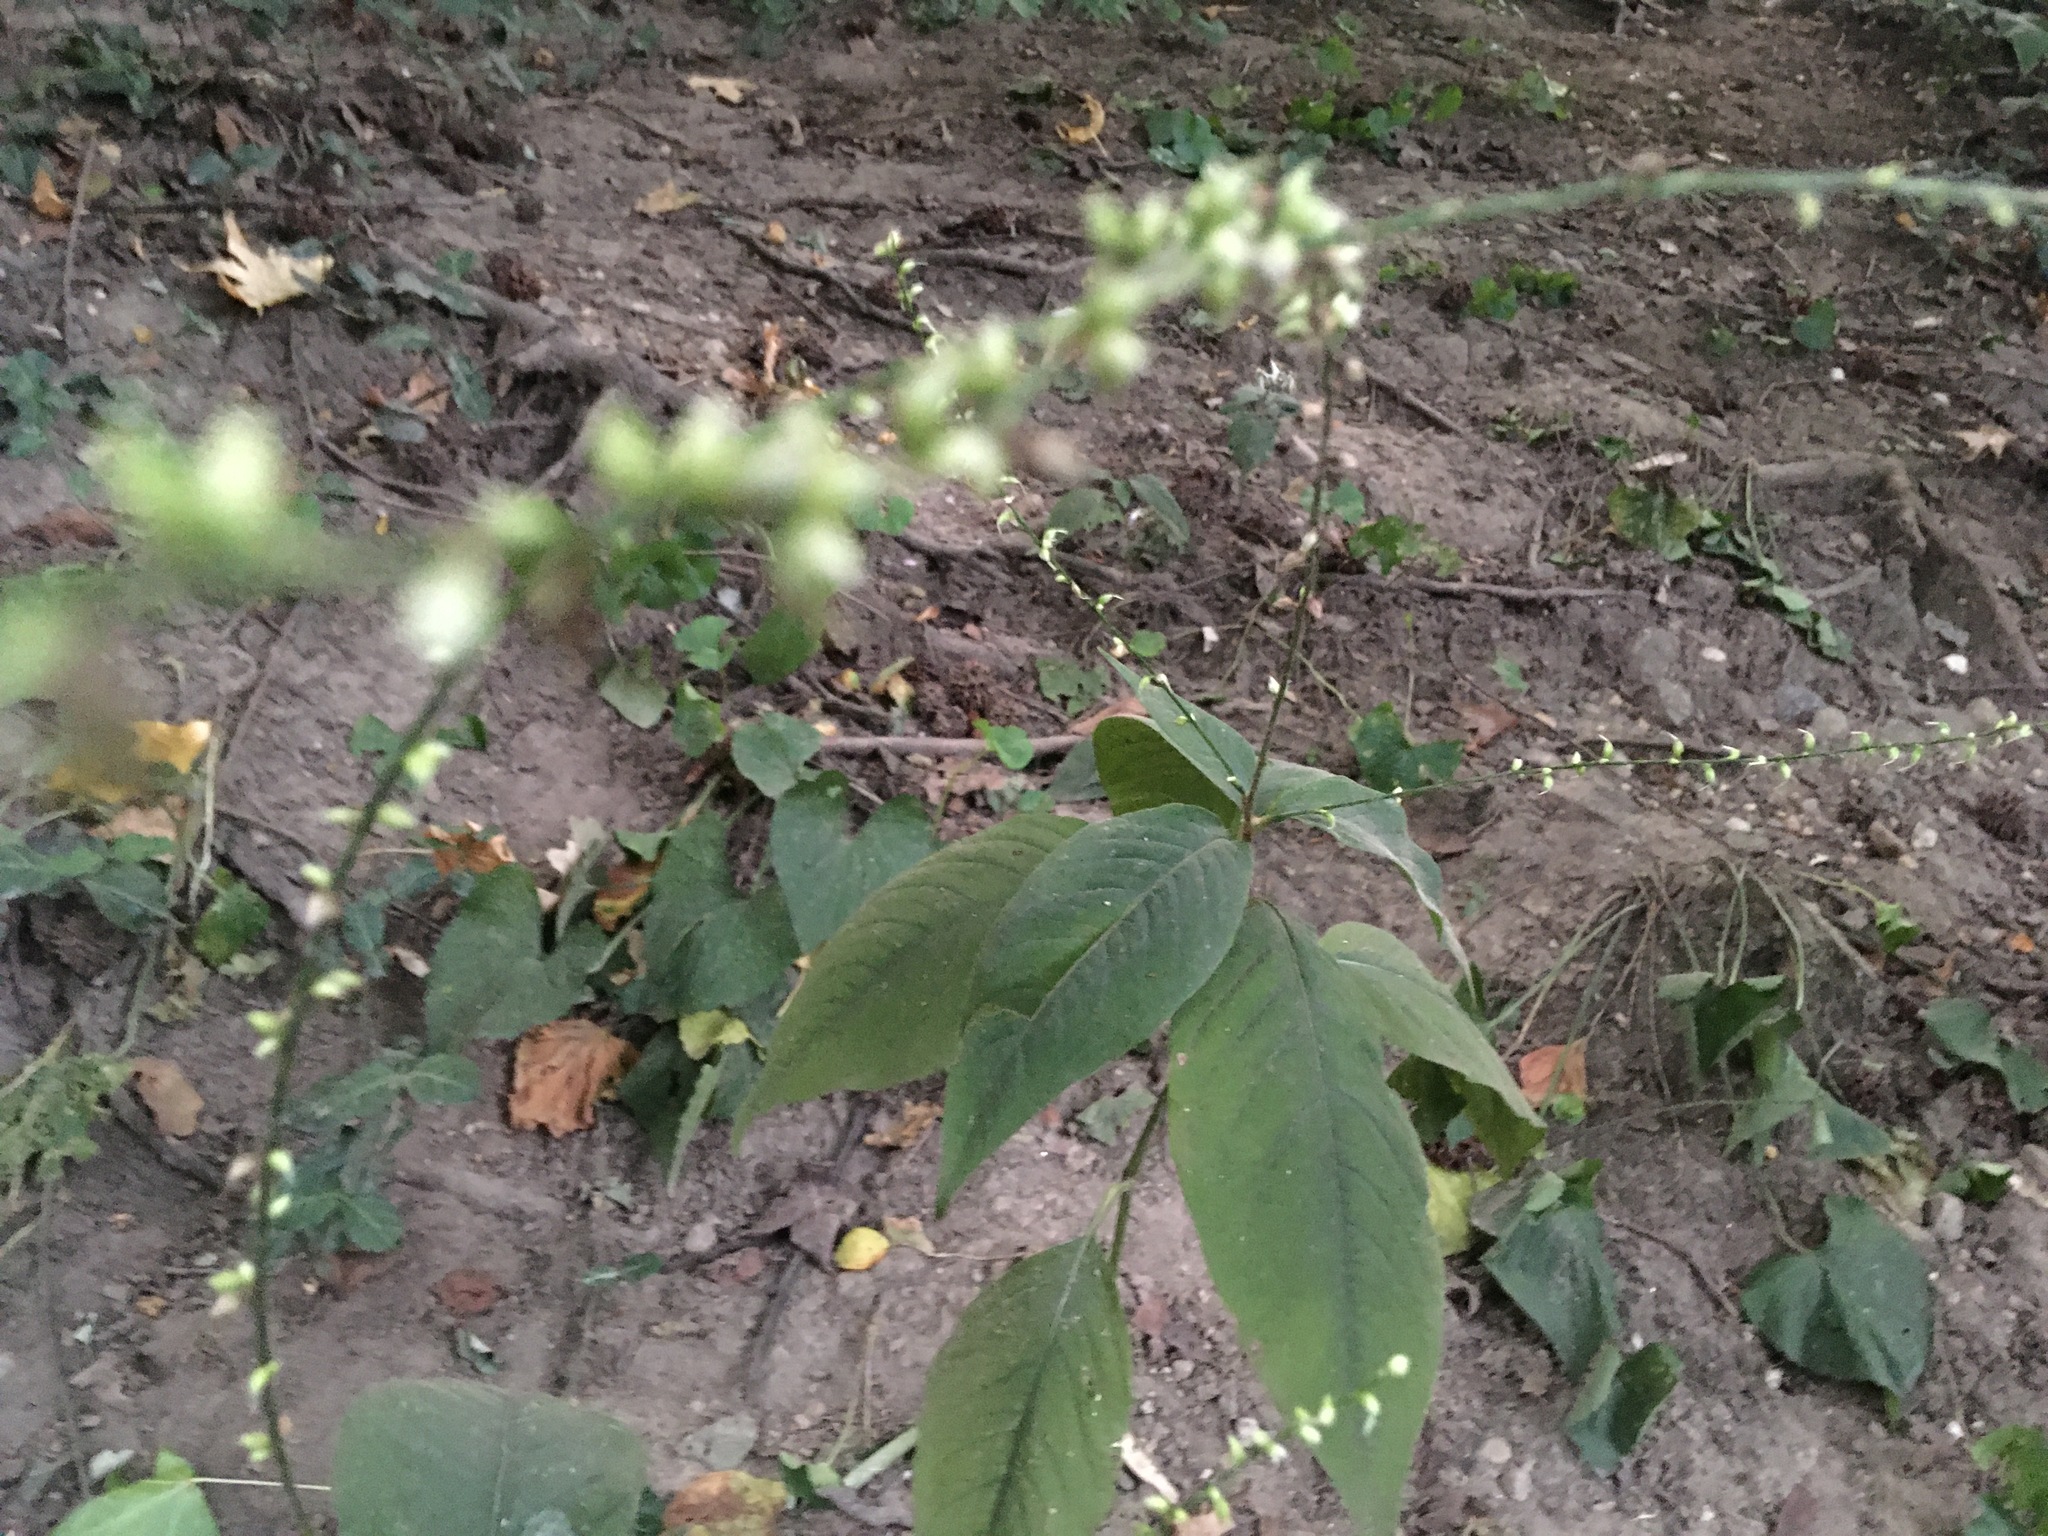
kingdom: Plantae
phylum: Tracheophyta
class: Magnoliopsida
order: Caryophyllales
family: Polygonaceae
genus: Persicaria
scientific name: Persicaria virginiana
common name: Jumpseed
